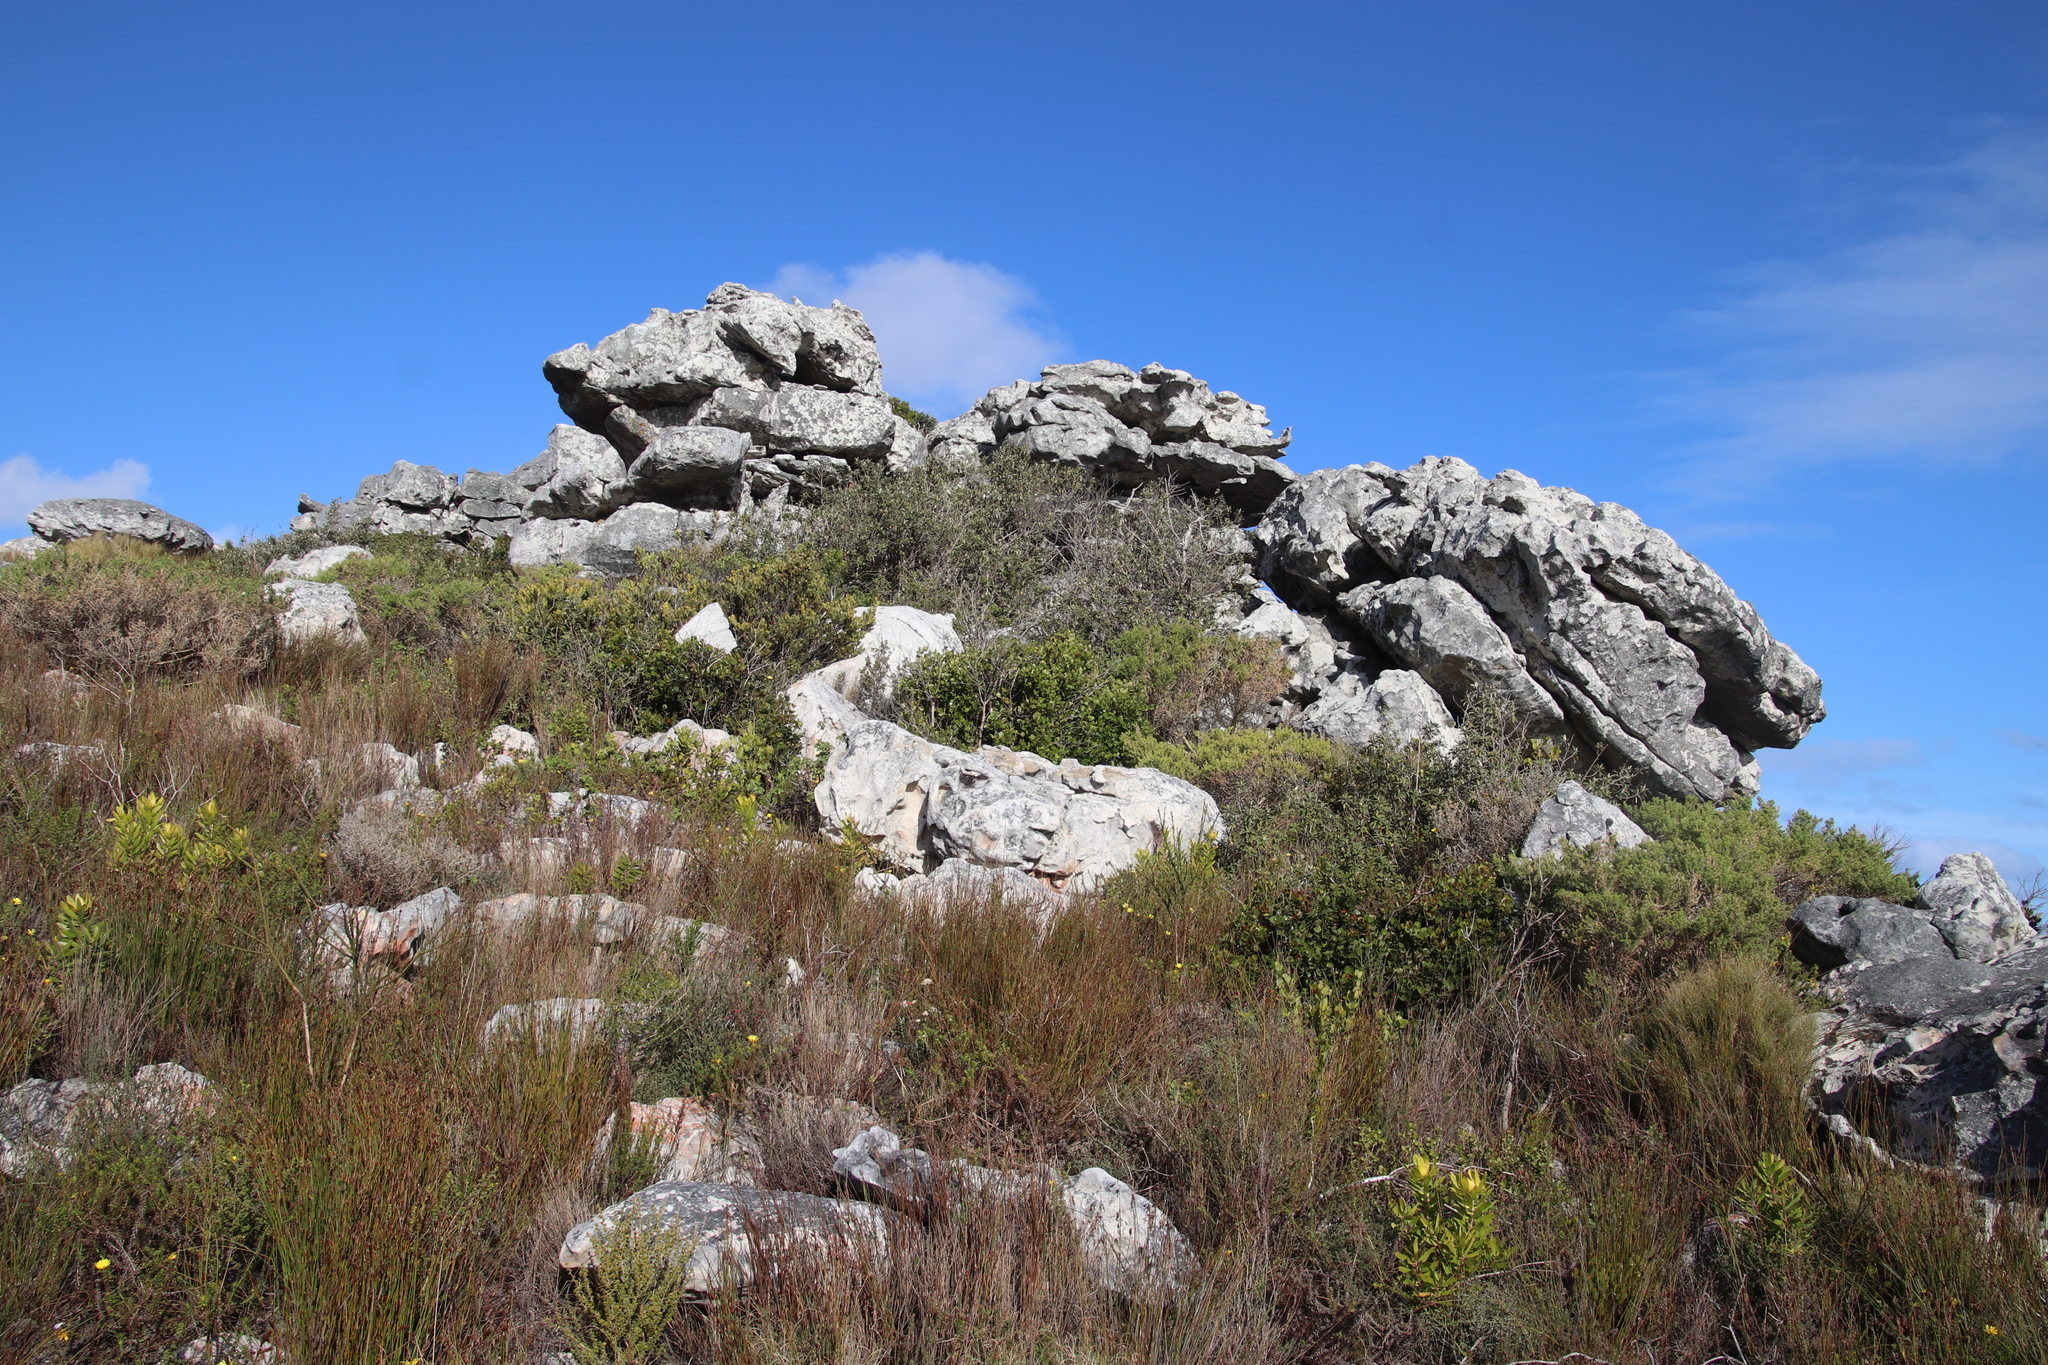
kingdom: Plantae
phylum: Tracheophyta
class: Magnoliopsida
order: Asterales
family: Asteraceae
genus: Tarchonanthus
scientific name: Tarchonanthus littoralis
